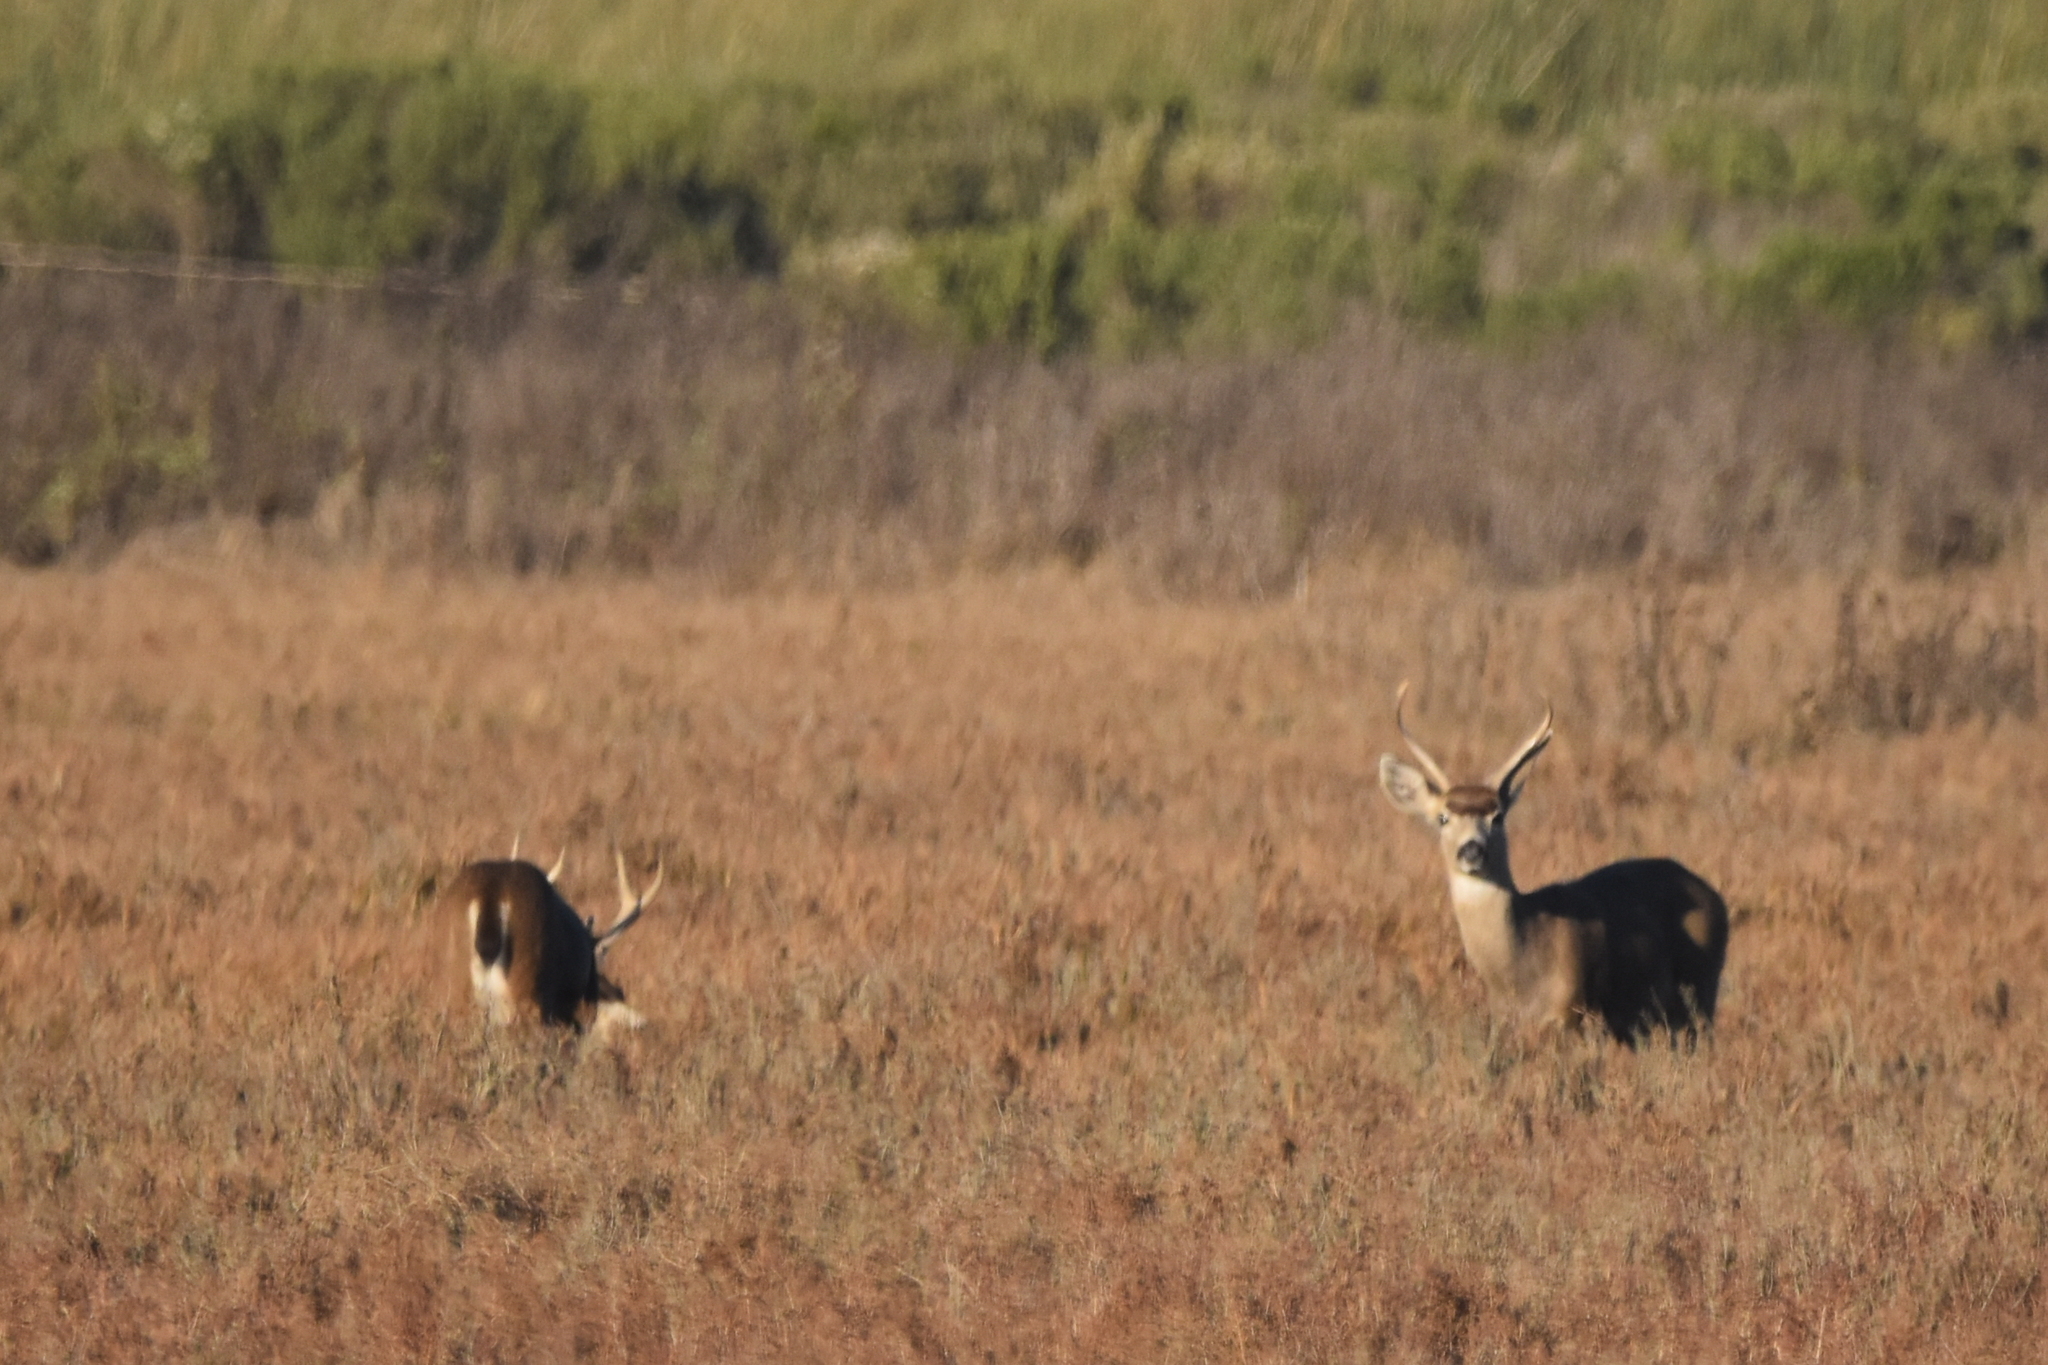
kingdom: Animalia
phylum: Chordata
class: Mammalia
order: Artiodactyla
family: Cervidae
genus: Odocoileus
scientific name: Odocoileus hemionus
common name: Mule deer
